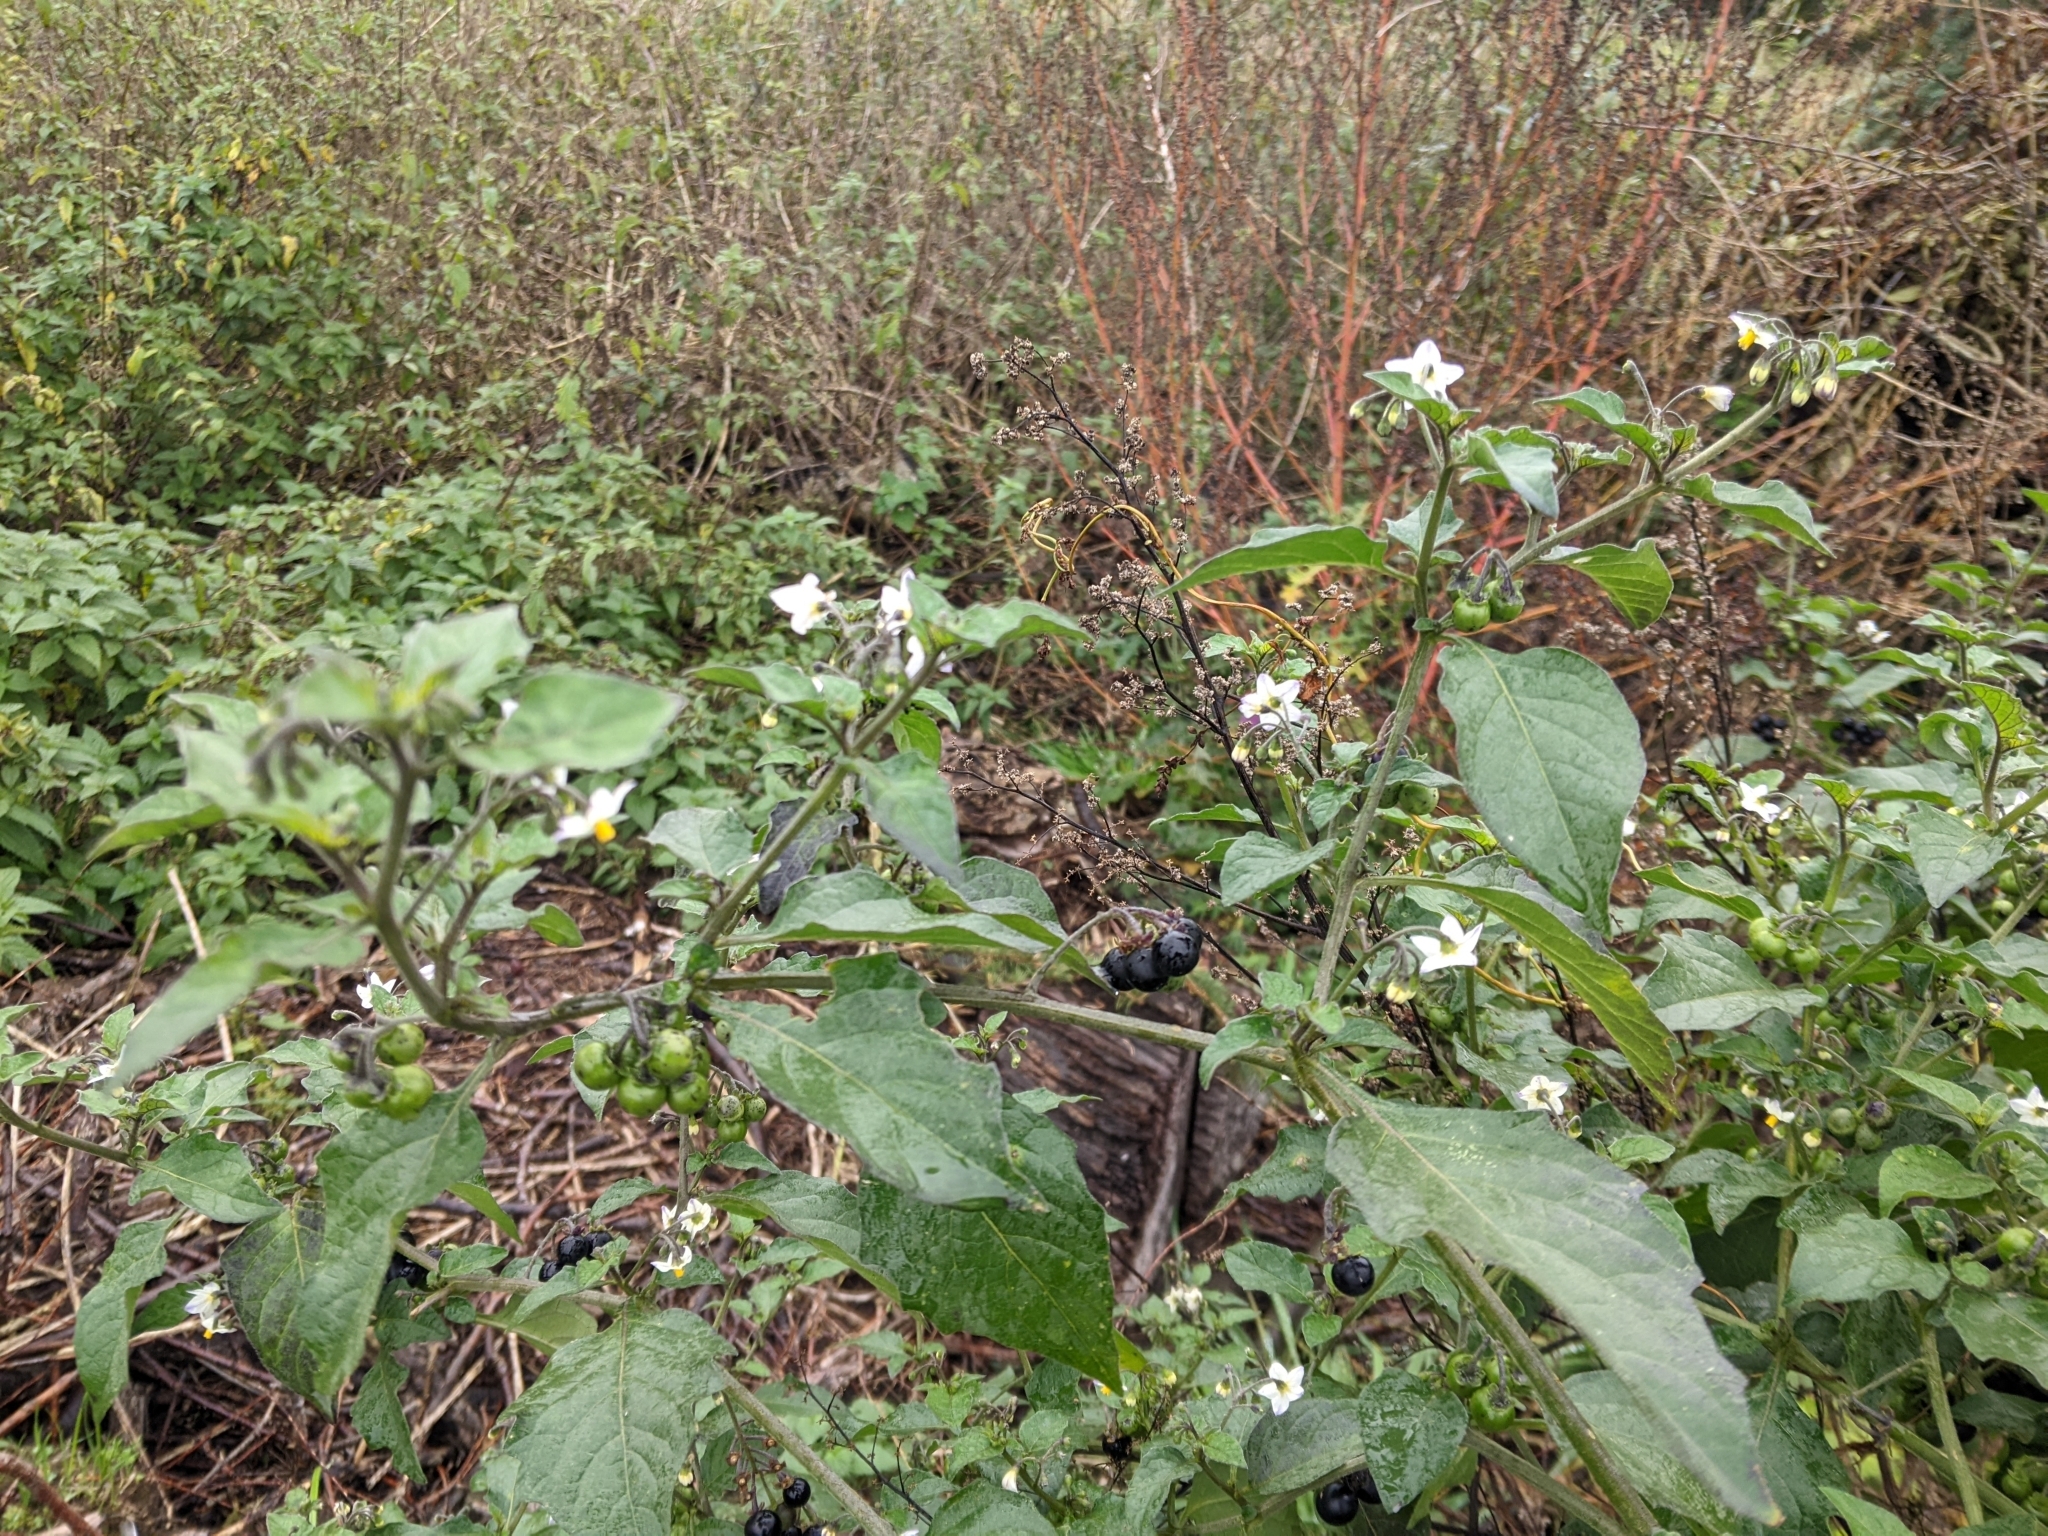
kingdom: Plantae
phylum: Tracheophyta
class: Magnoliopsida
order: Solanales
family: Solanaceae
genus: Solanum
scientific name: Solanum nigrum
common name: Black nightshade
